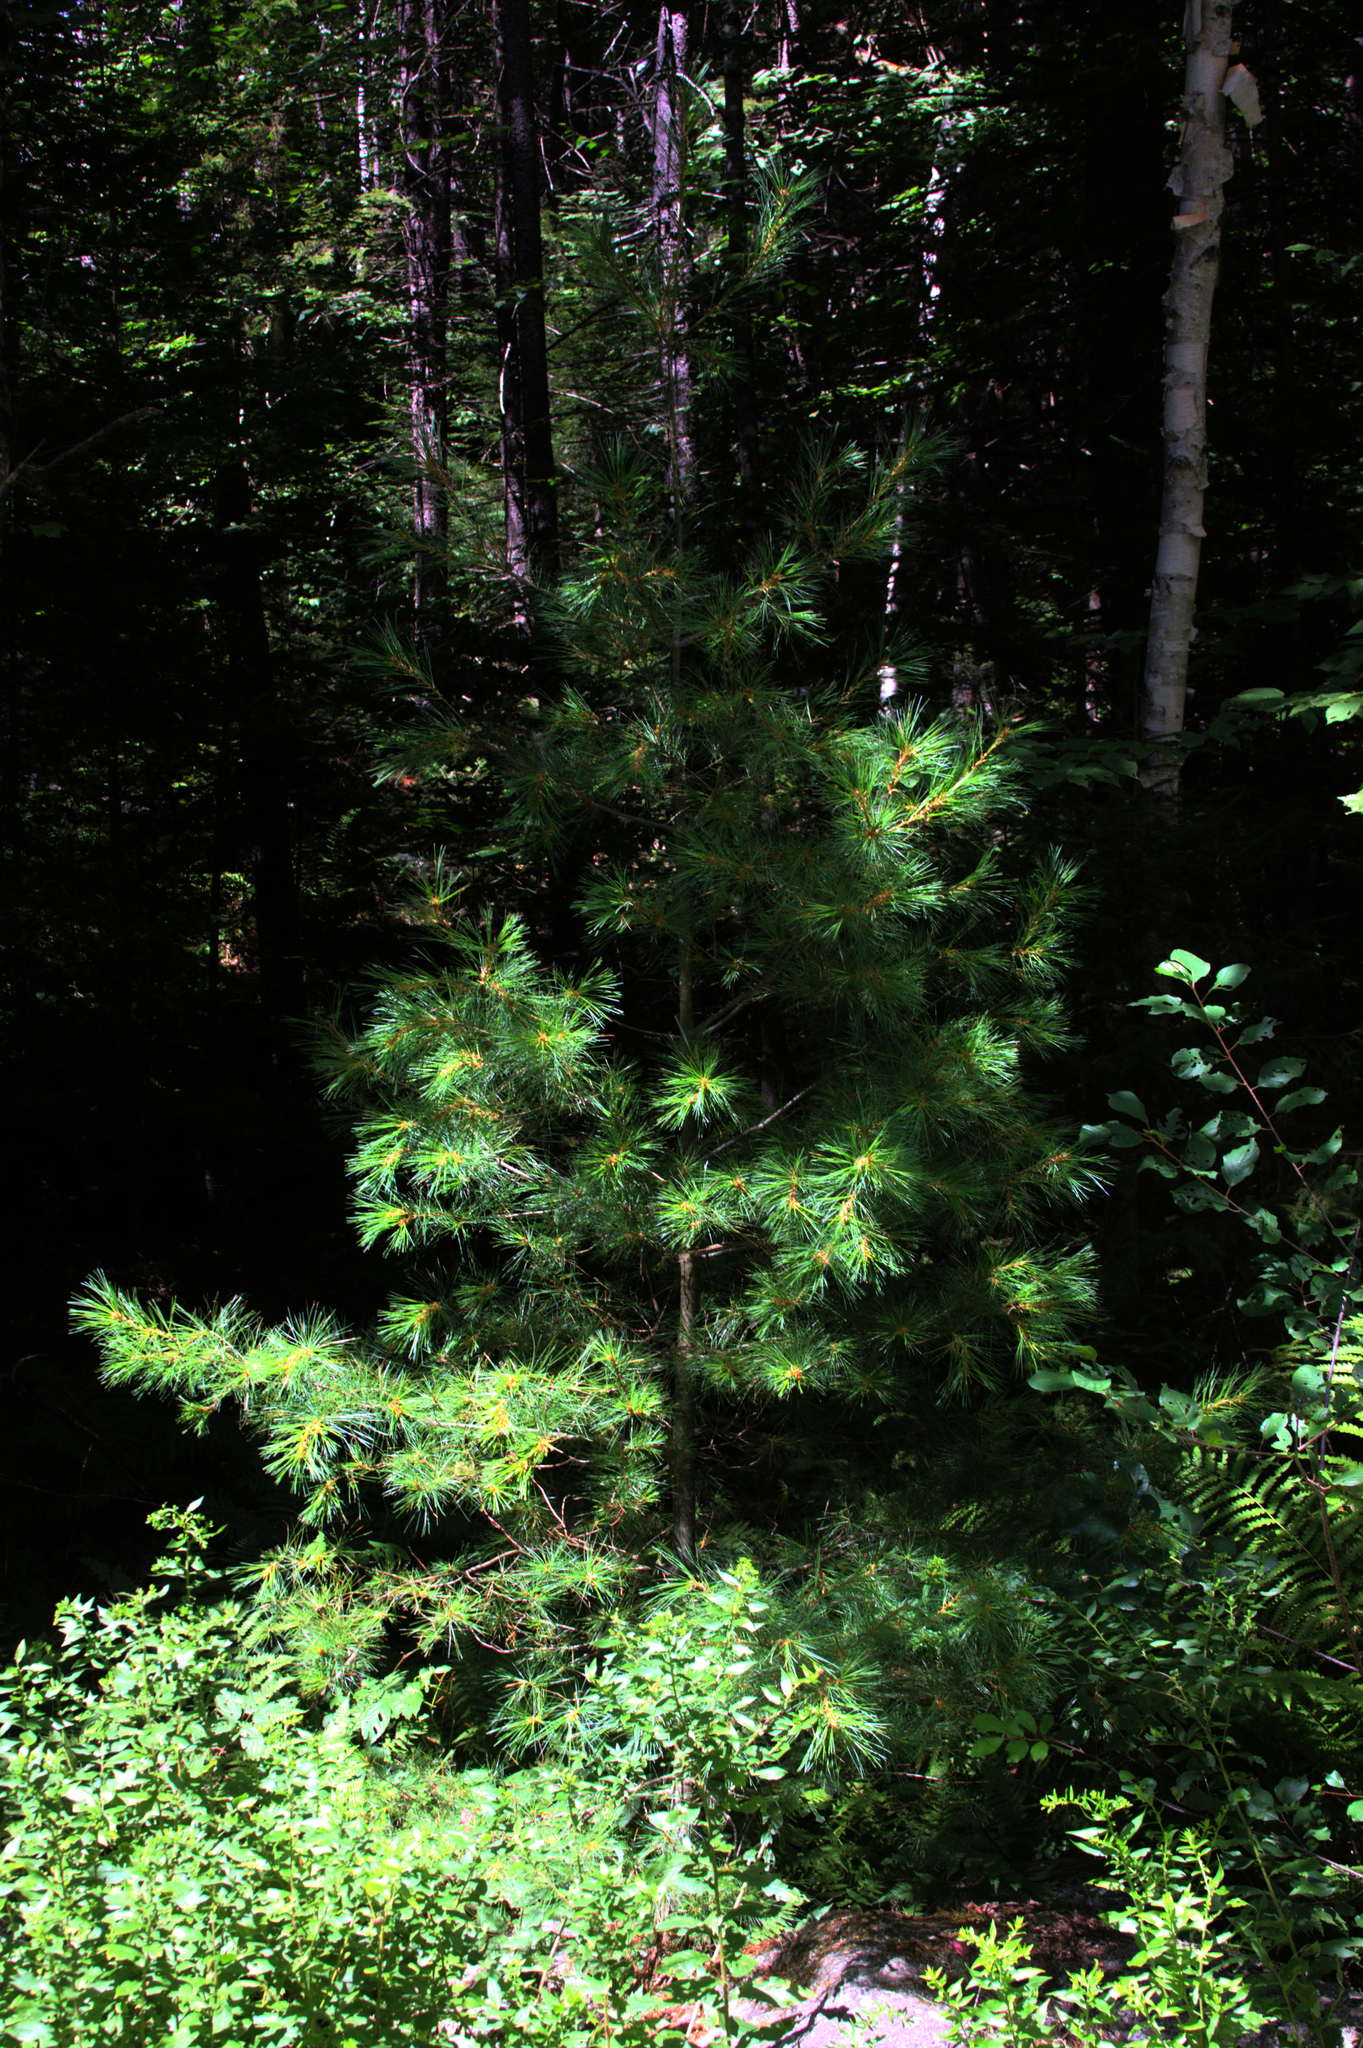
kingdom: Plantae
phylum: Tracheophyta
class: Pinopsida
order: Pinales
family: Pinaceae
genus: Pinus
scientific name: Pinus strobus
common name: Weymouth pine
